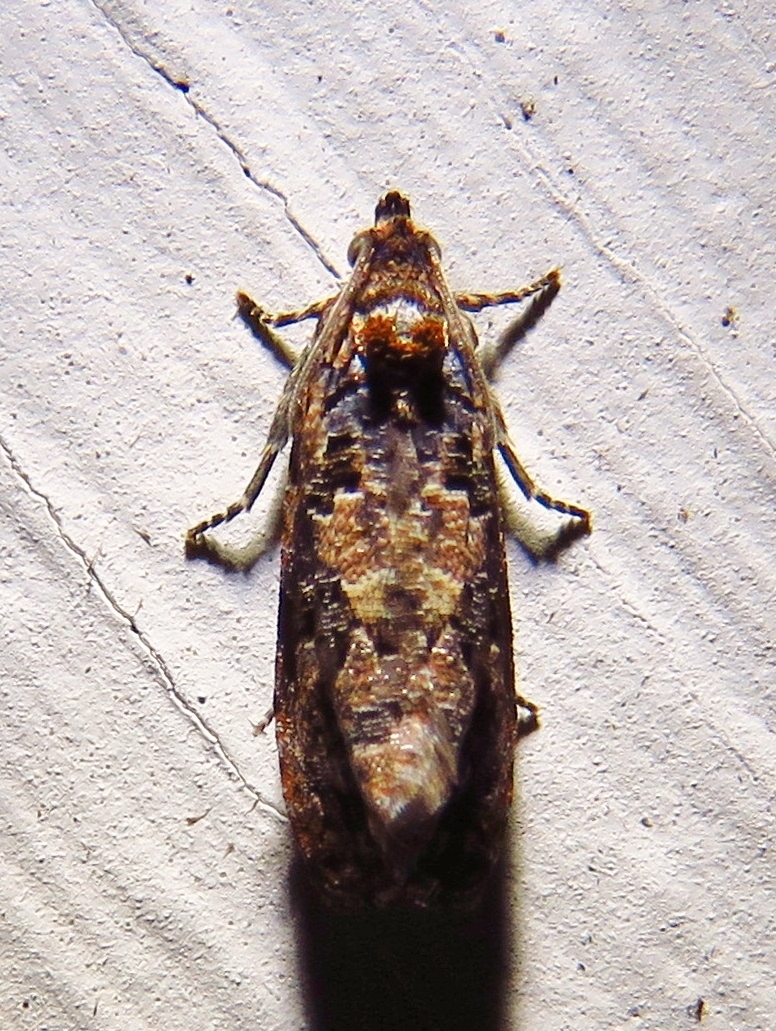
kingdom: Animalia
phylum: Arthropoda
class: Insecta
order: Lepidoptera
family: Tortricidae
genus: Endothenia
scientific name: Endothenia hebesana
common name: Verbena bud moth
